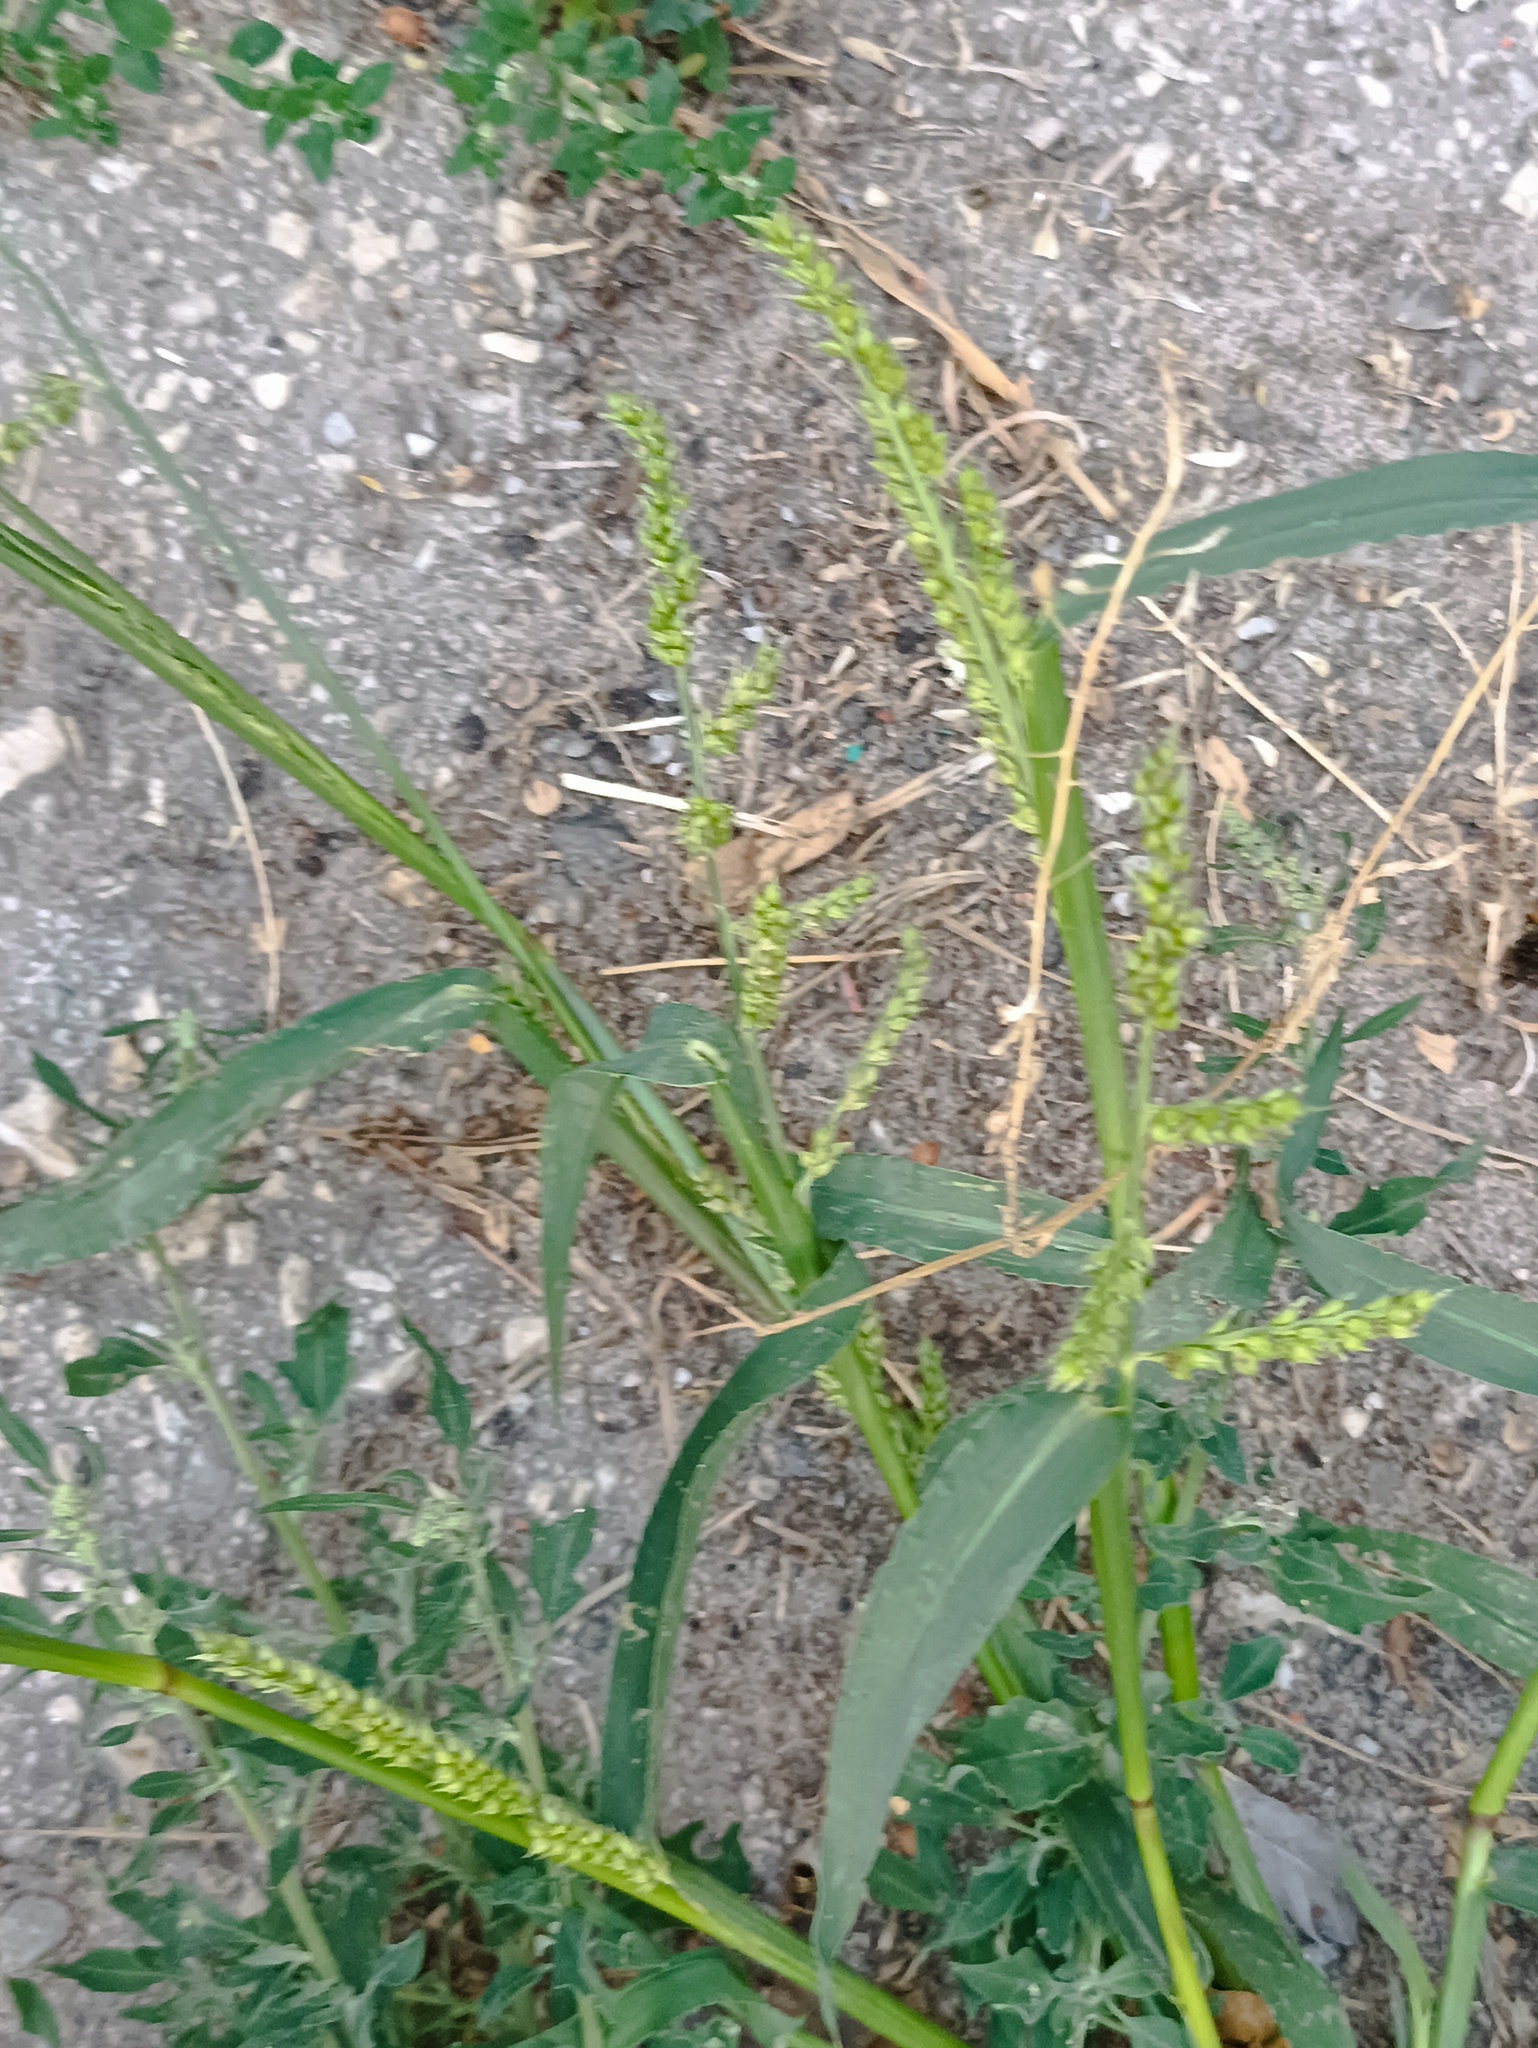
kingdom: Plantae
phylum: Tracheophyta
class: Liliopsida
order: Poales
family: Poaceae
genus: Echinochloa
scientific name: Echinochloa crus-galli
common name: Cockspur
